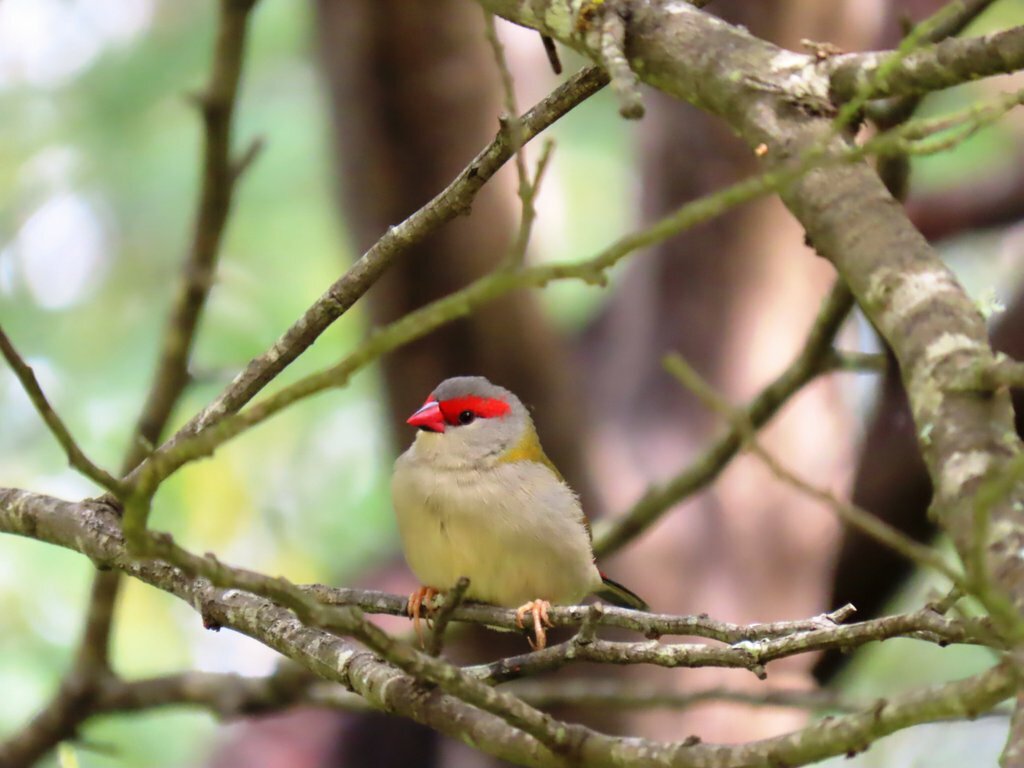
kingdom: Animalia
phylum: Chordata
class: Aves
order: Passeriformes
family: Estrildidae
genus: Neochmia
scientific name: Neochmia temporalis
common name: Red-browed finch
